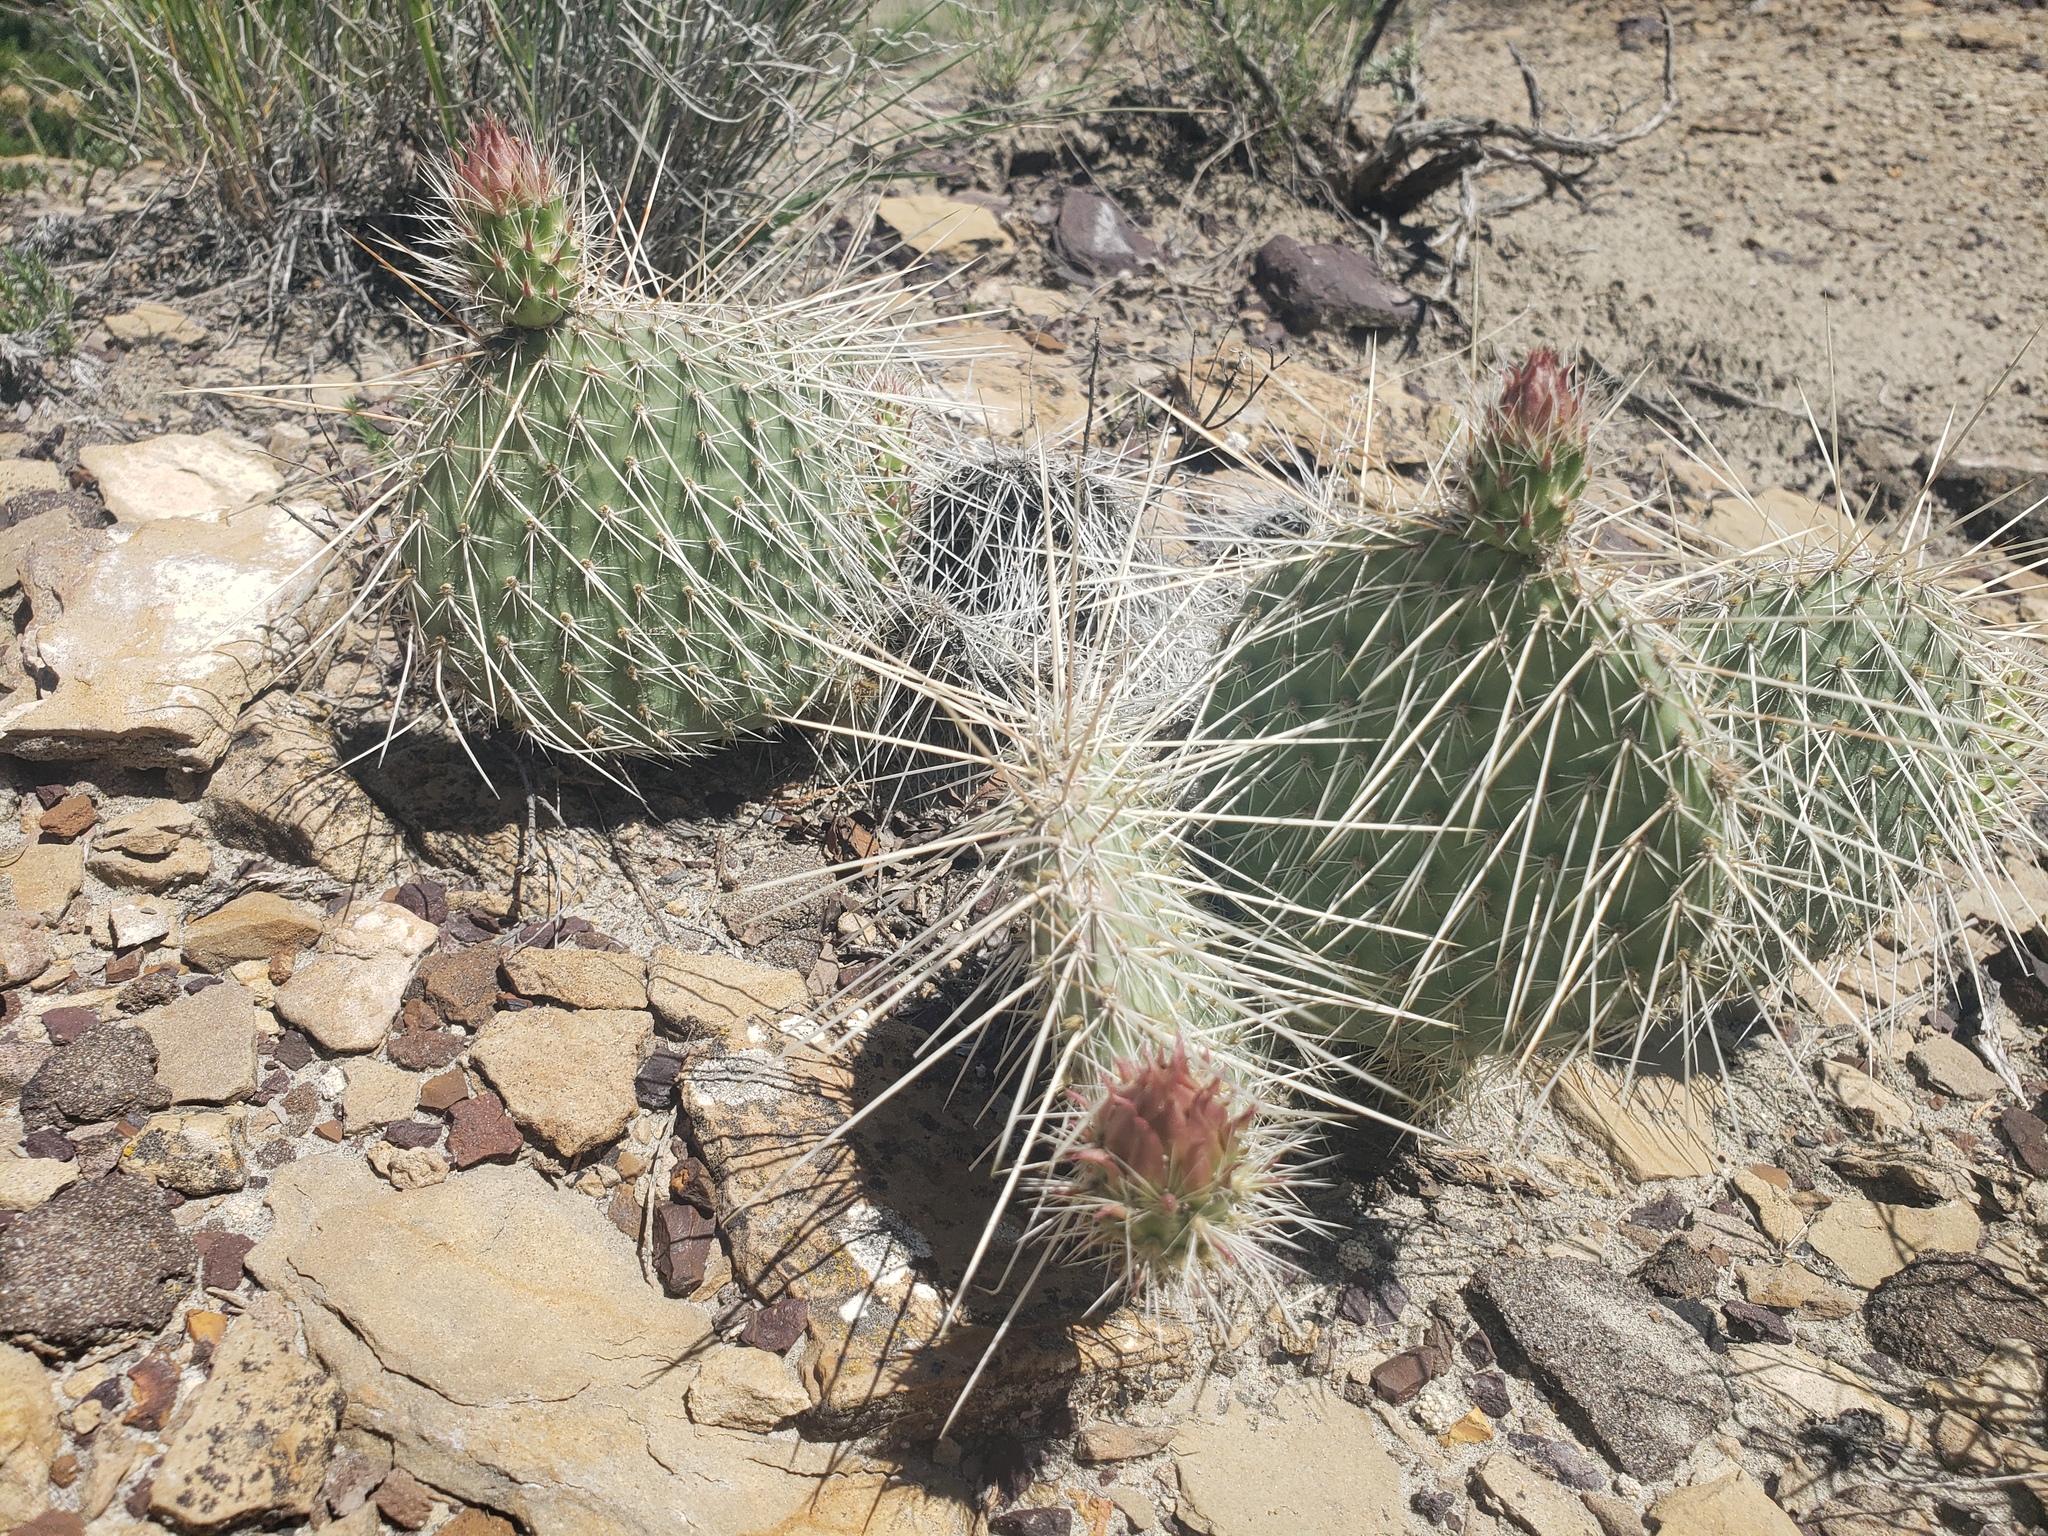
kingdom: Plantae
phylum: Tracheophyta
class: Magnoliopsida
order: Caryophyllales
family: Cactaceae
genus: Opuntia
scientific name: Opuntia polyacantha
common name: Plains prickly-pear
